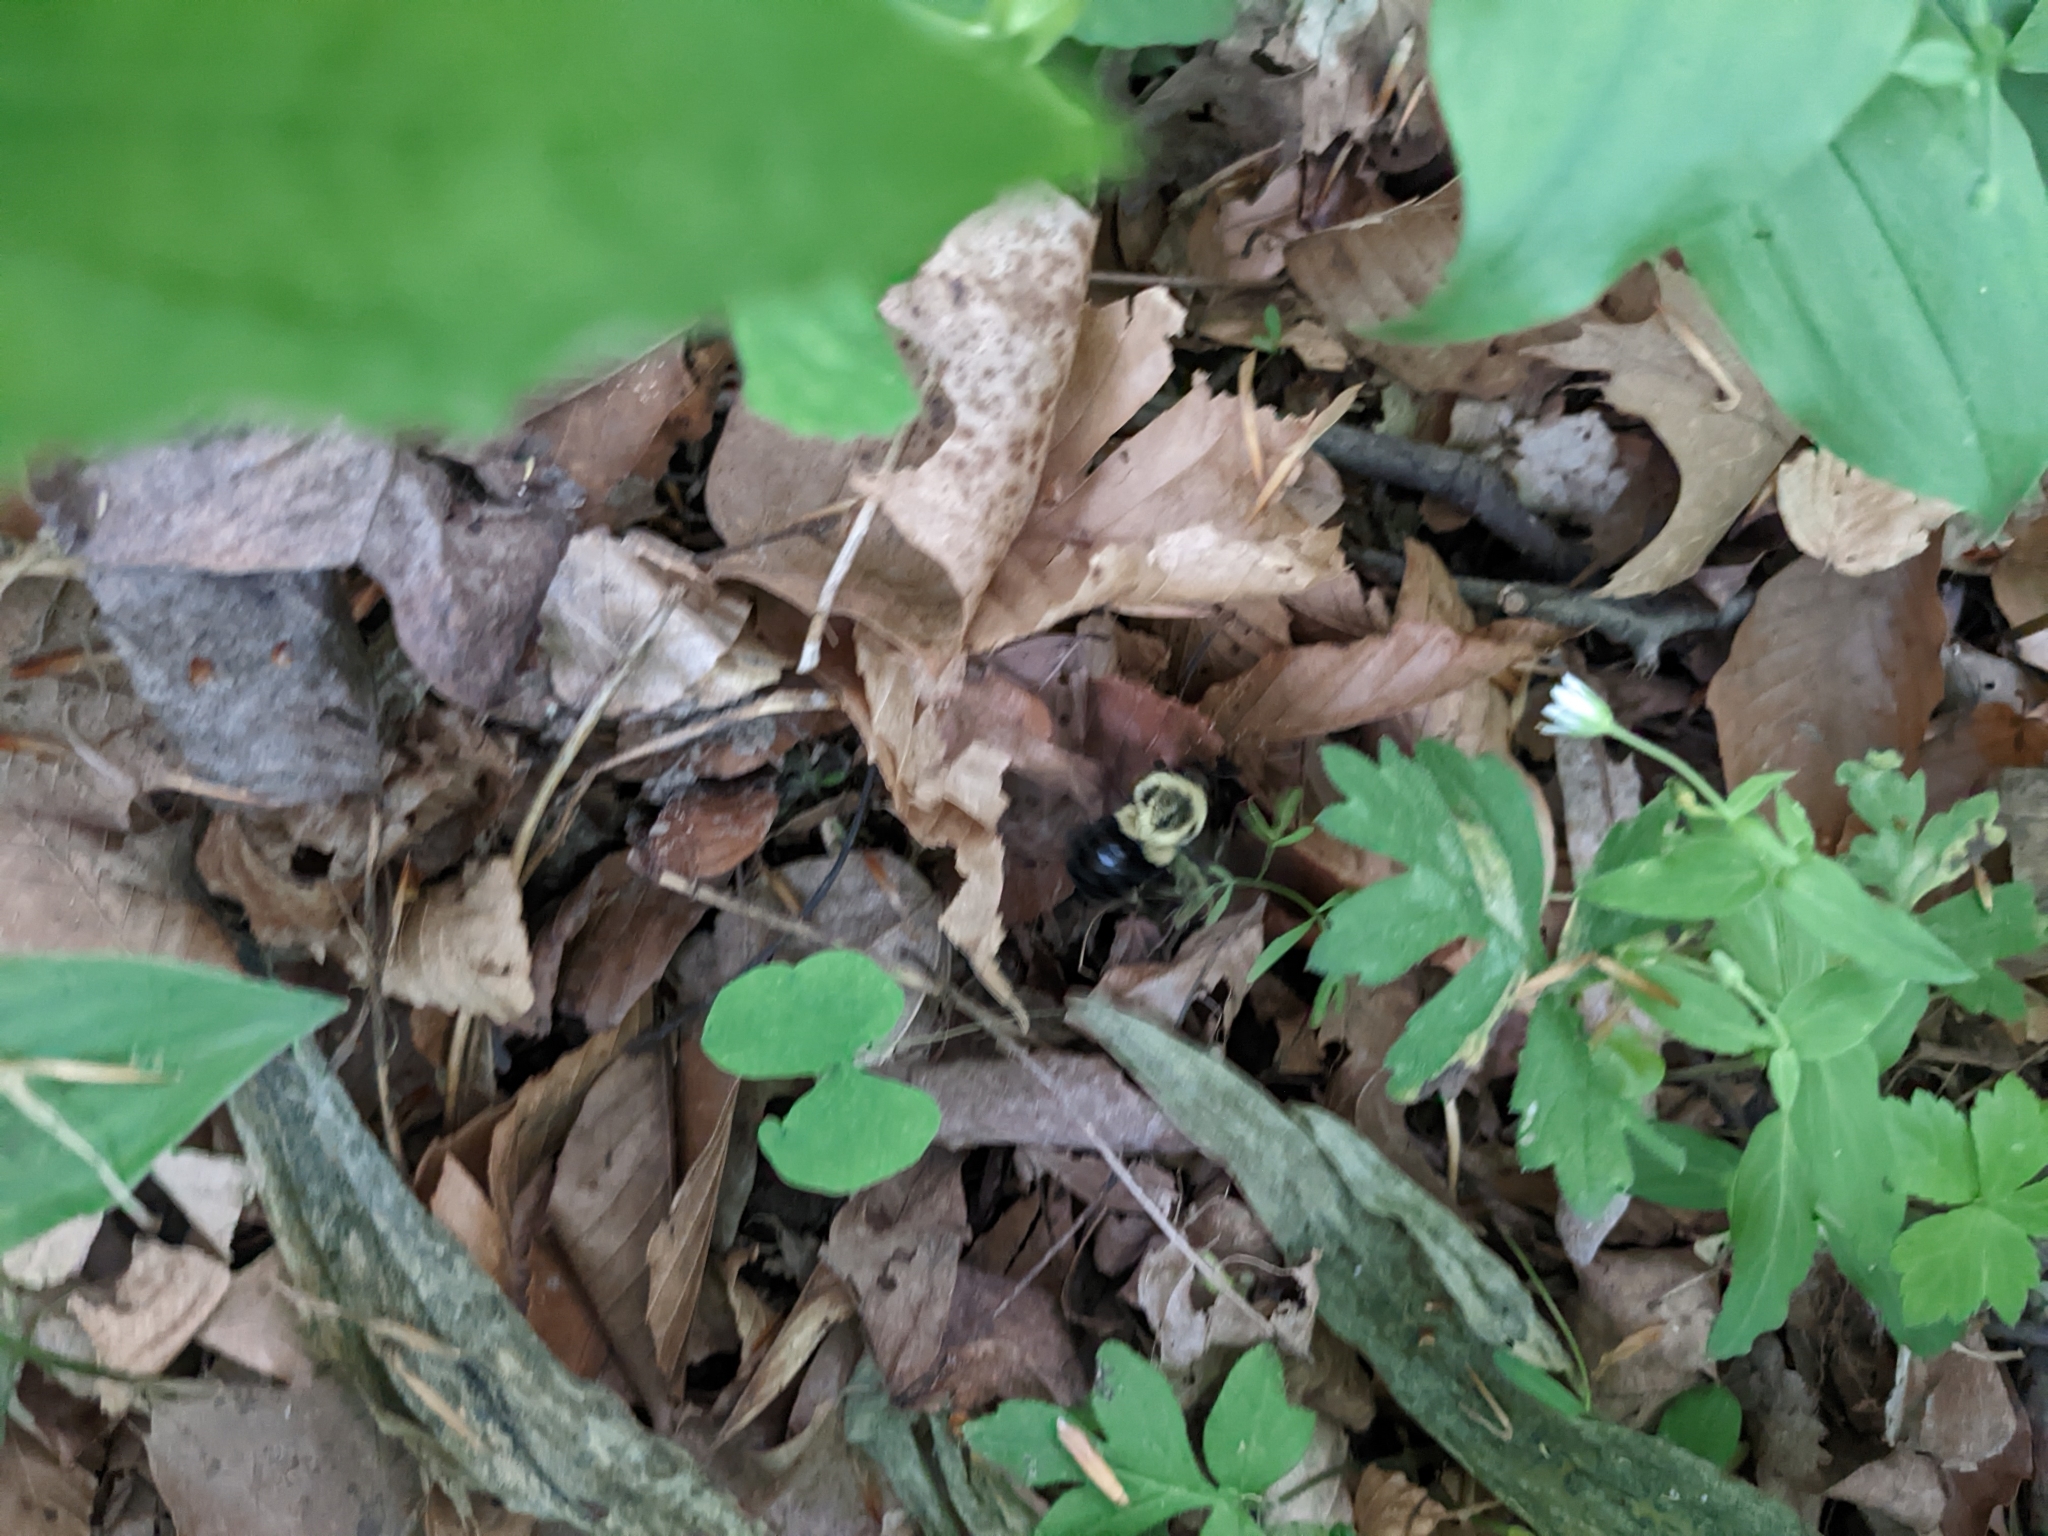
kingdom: Animalia
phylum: Arthropoda
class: Insecta
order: Hymenoptera
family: Apidae
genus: Bombus
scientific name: Bombus impatiens
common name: Common eastern bumble bee
